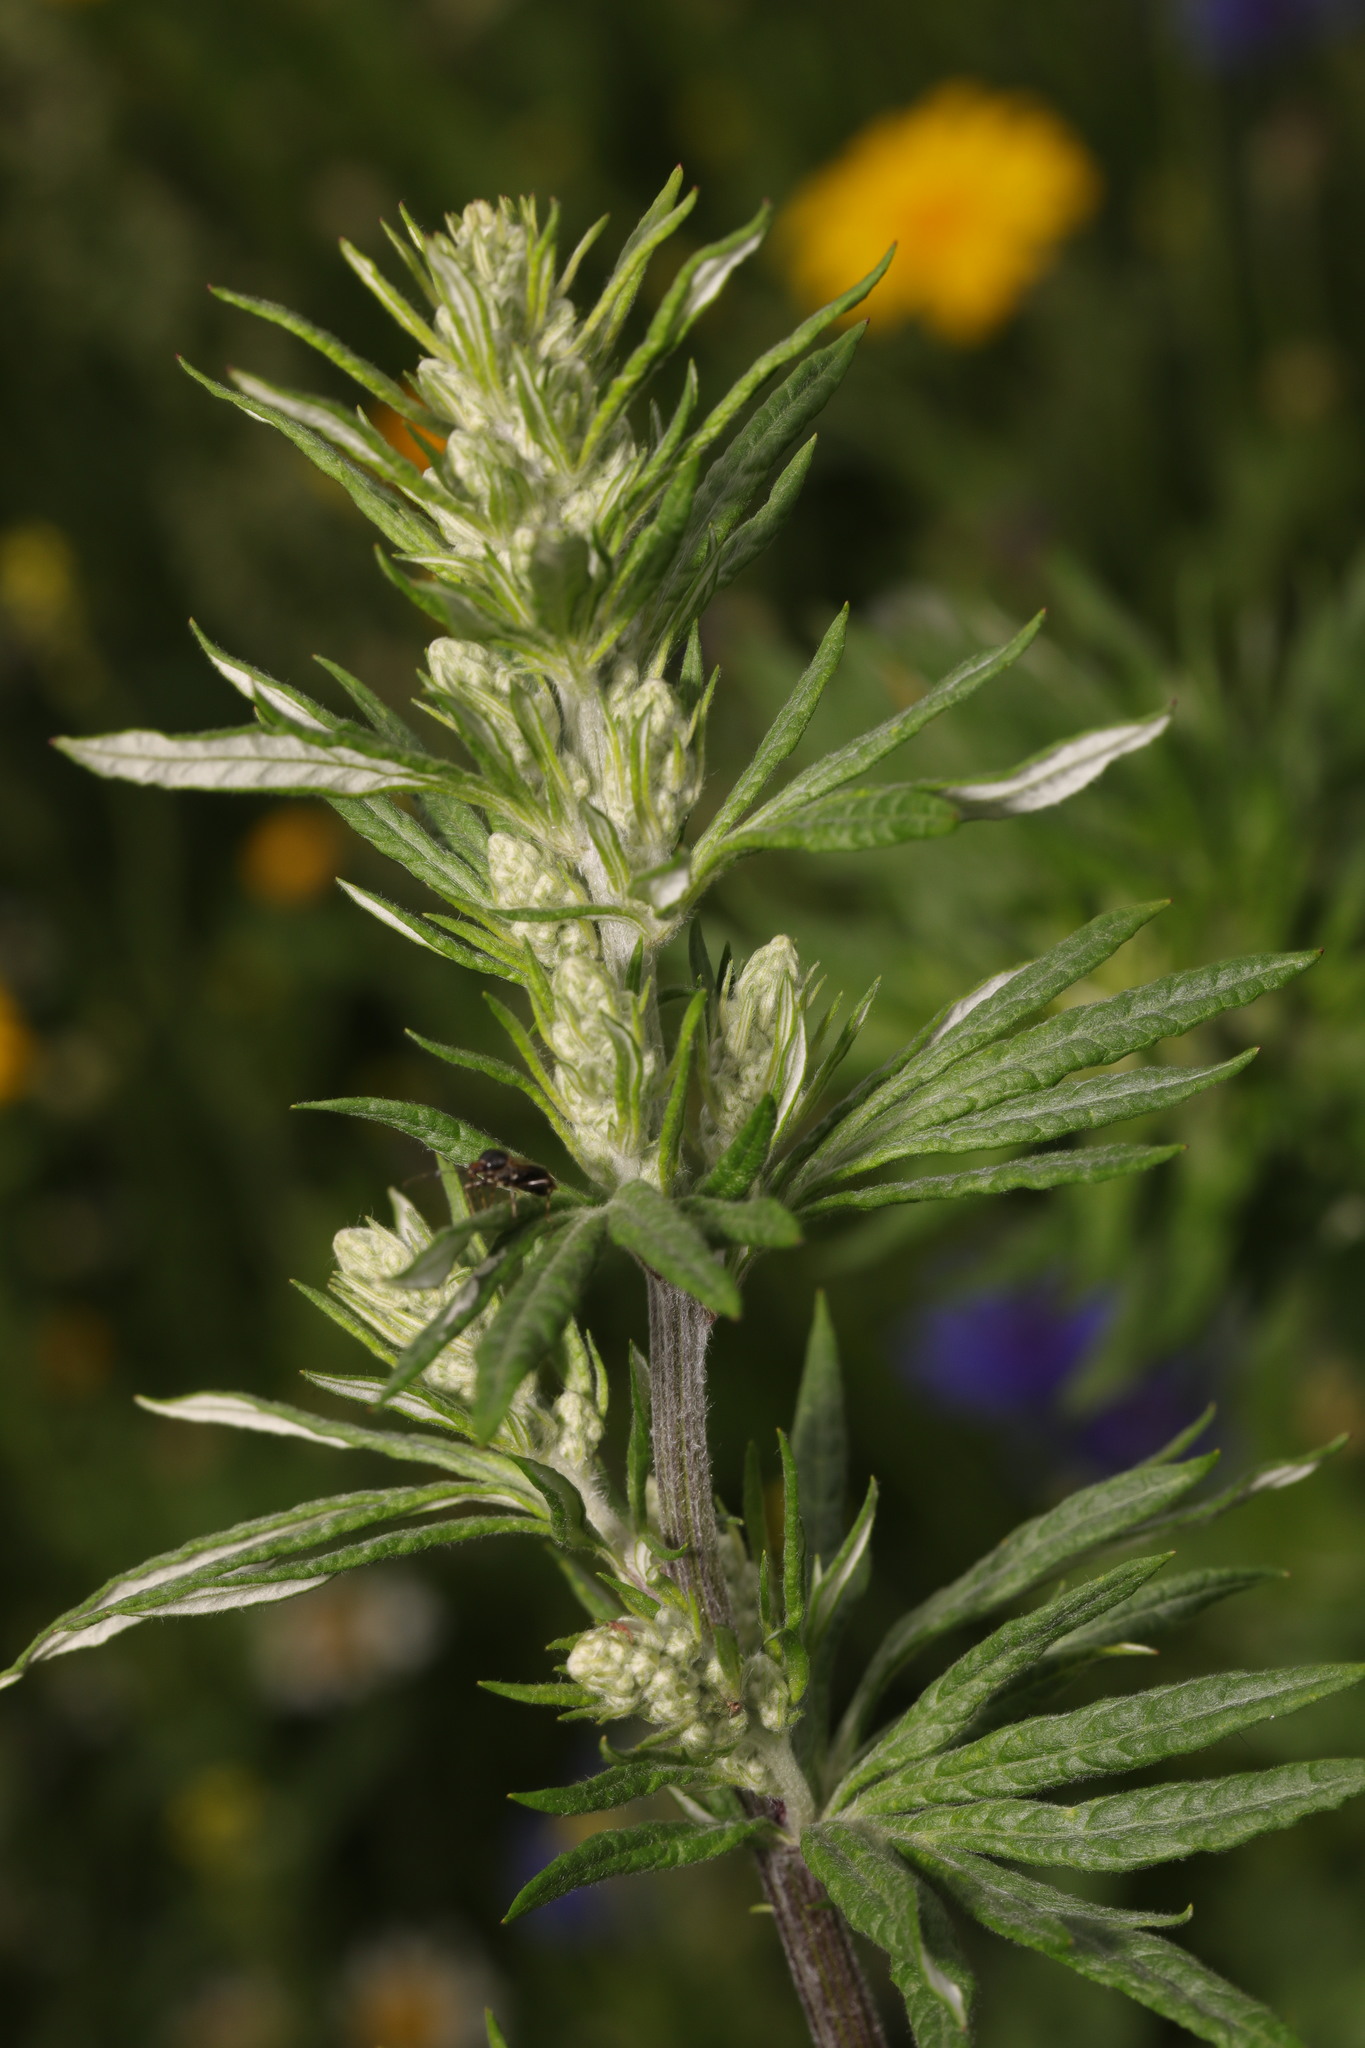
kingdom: Plantae
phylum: Tracheophyta
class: Magnoliopsida
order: Asterales
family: Asteraceae
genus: Artemisia
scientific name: Artemisia vulgaris
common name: Mugwort
